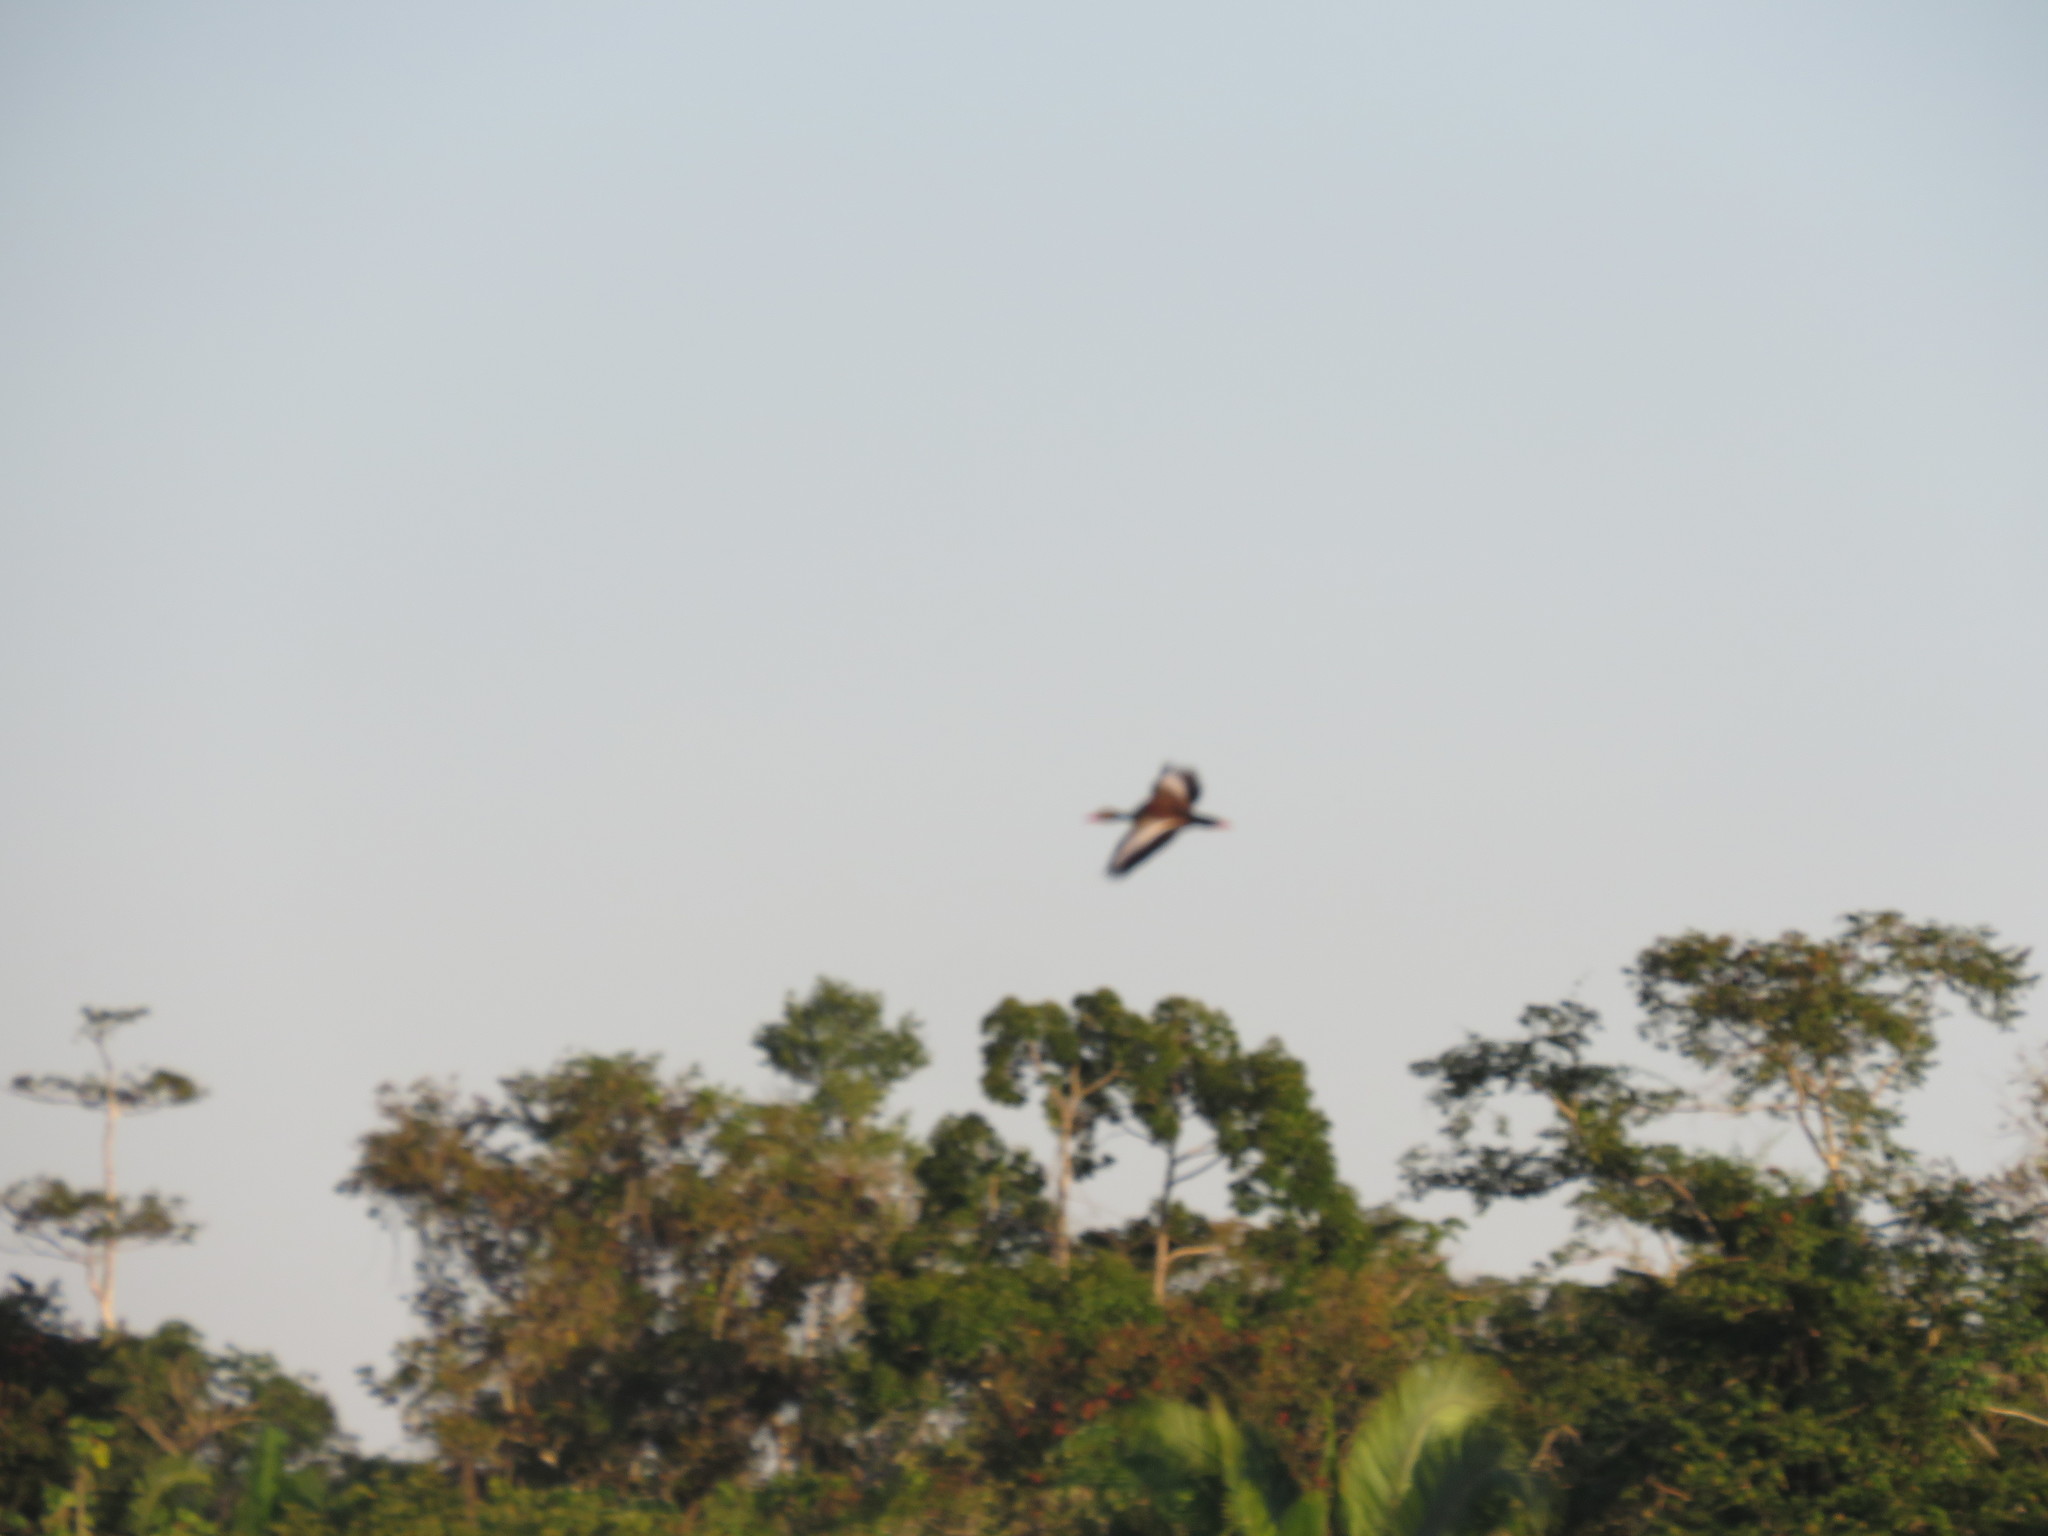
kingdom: Animalia
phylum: Chordata
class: Aves
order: Anseriformes
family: Anatidae
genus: Dendrocygna
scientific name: Dendrocygna autumnalis
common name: Black-bellied whistling duck
